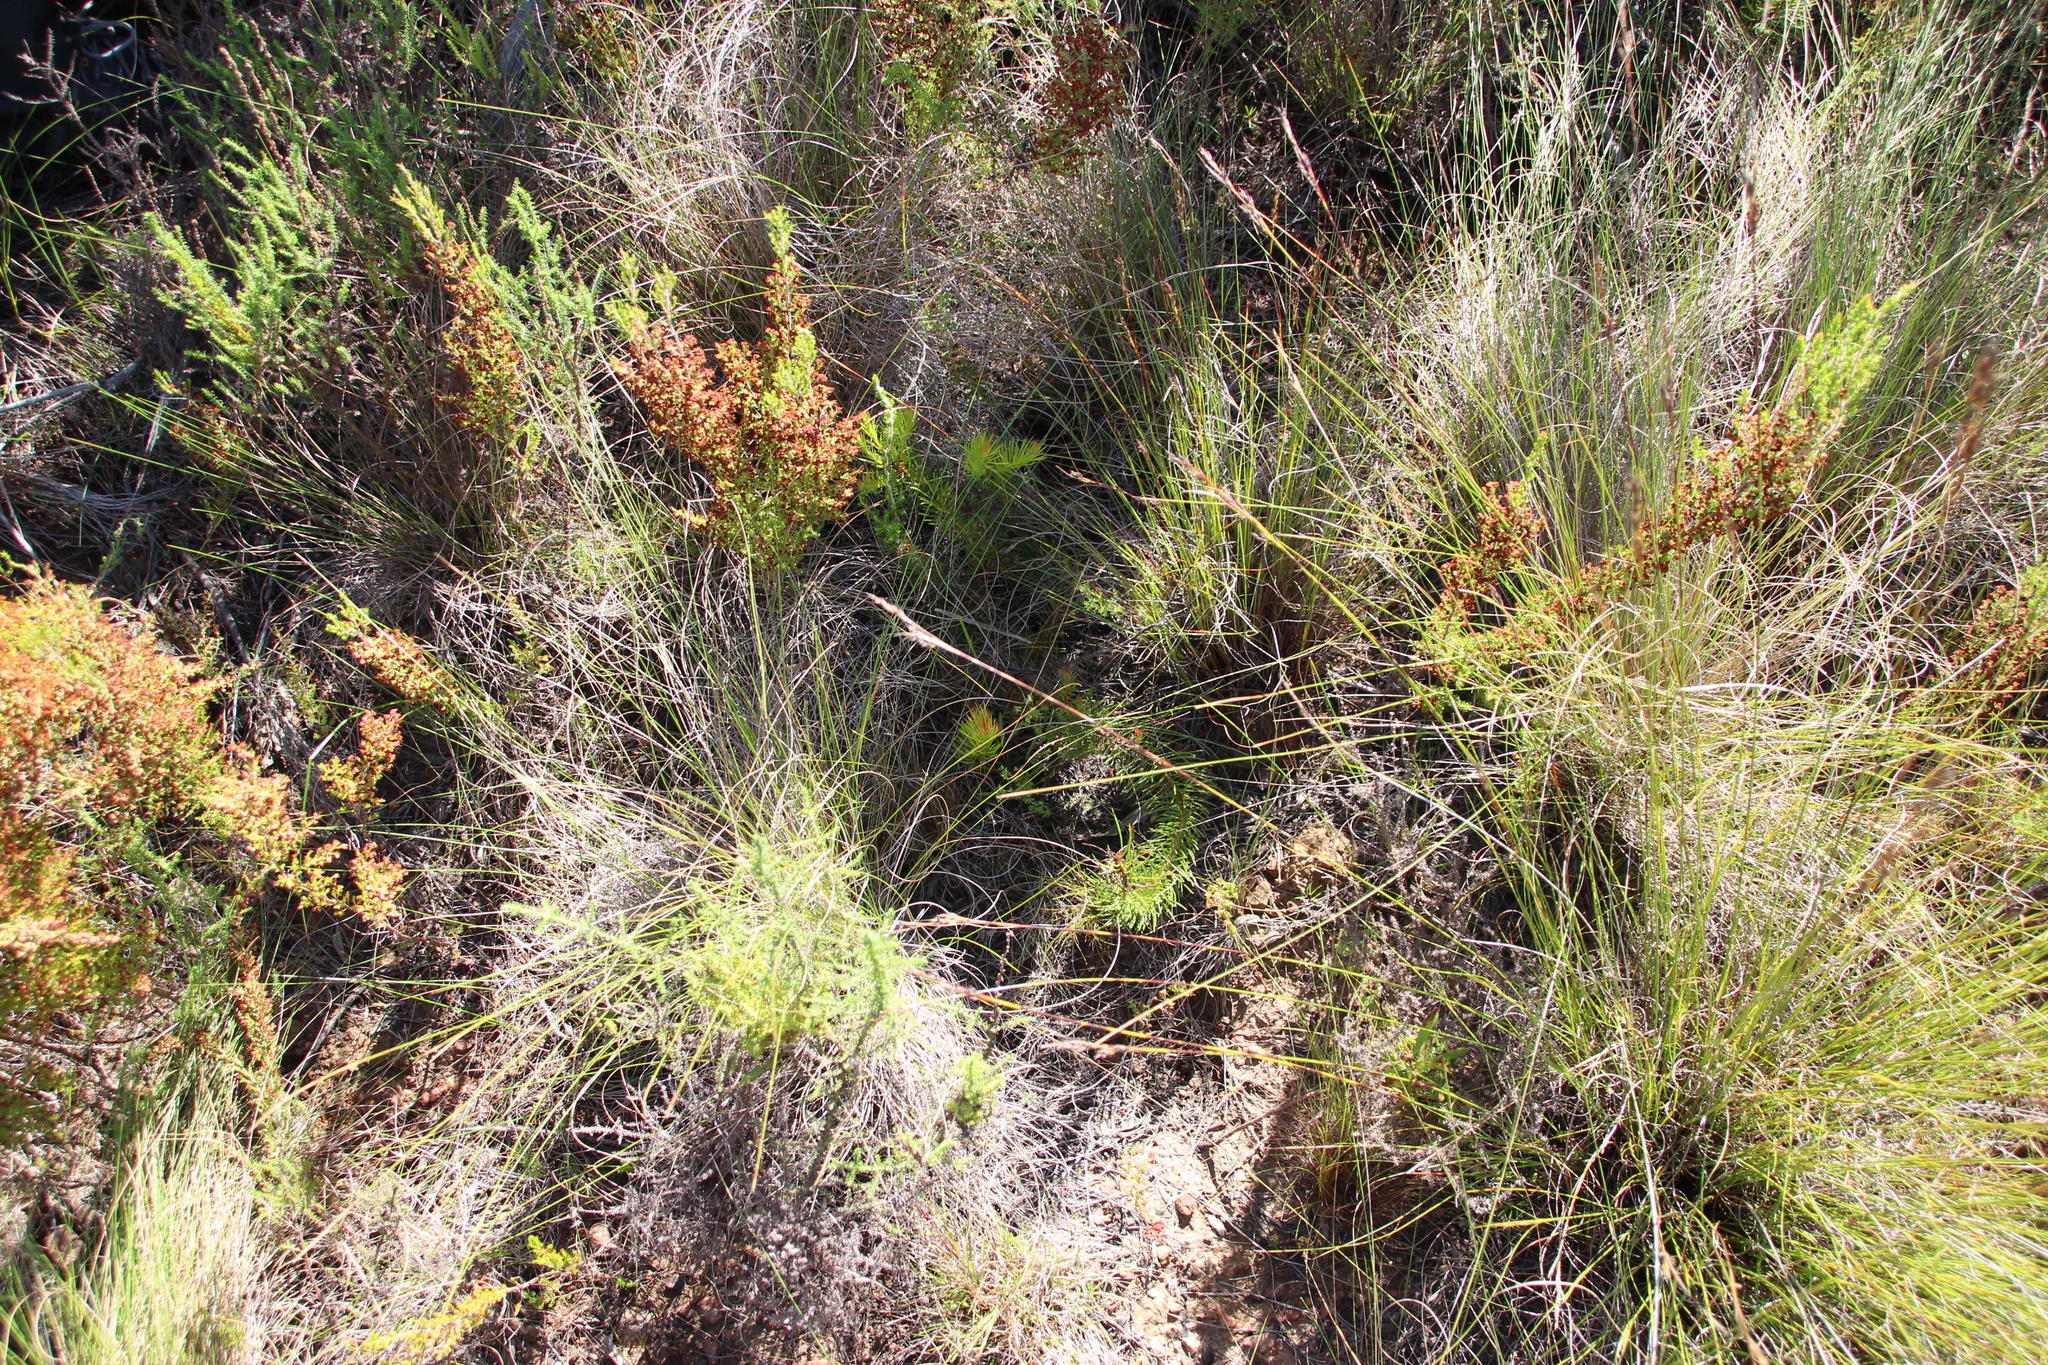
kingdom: Plantae
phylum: Tracheophyta
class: Magnoliopsida
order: Proteales
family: Proteaceae
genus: Protea
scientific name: Protea subulifolia
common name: Awl-leaf sugarbush
